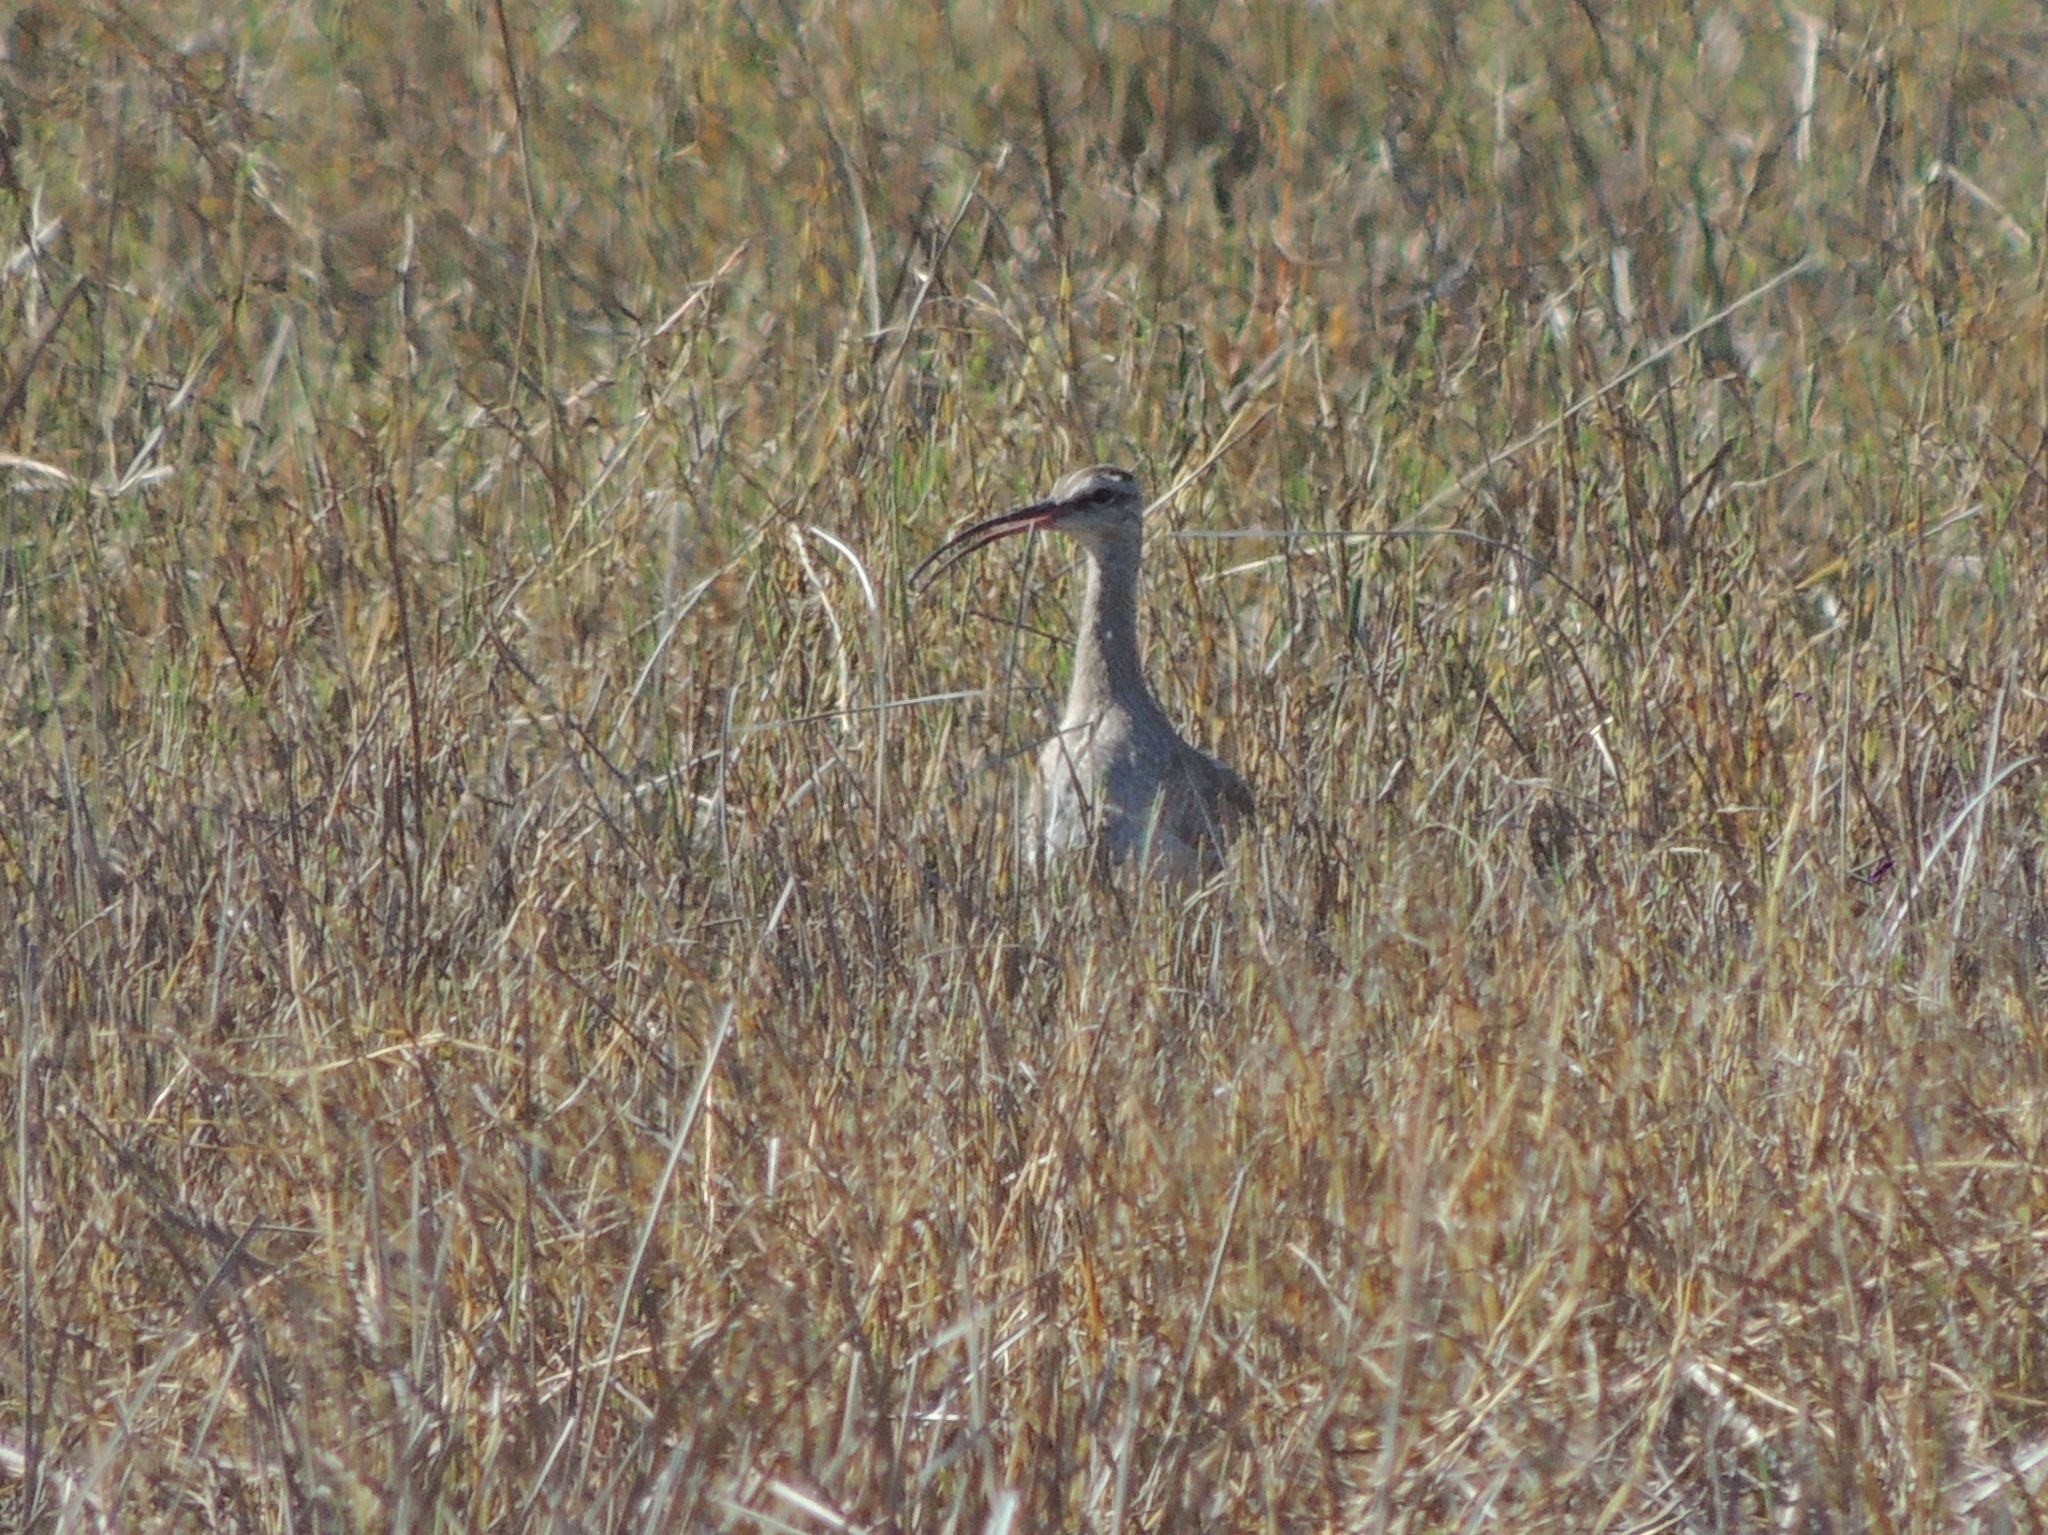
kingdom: Animalia
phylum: Chordata
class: Aves
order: Charadriiformes
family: Scolopacidae
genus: Numenius
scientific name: Numenius phaeopus
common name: Whimbrel
